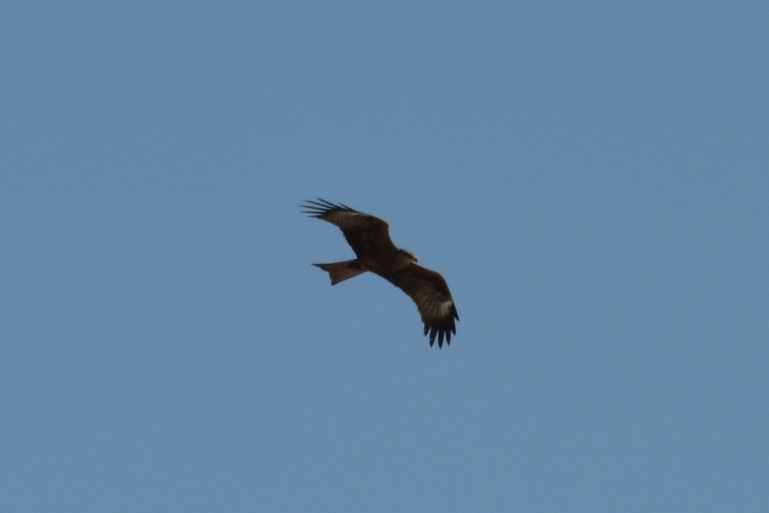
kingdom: Animalia
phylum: Chordata
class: Aves
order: Accipitriformes
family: Accipitridae
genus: Milvus
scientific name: Milvus migrans
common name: Black kite
